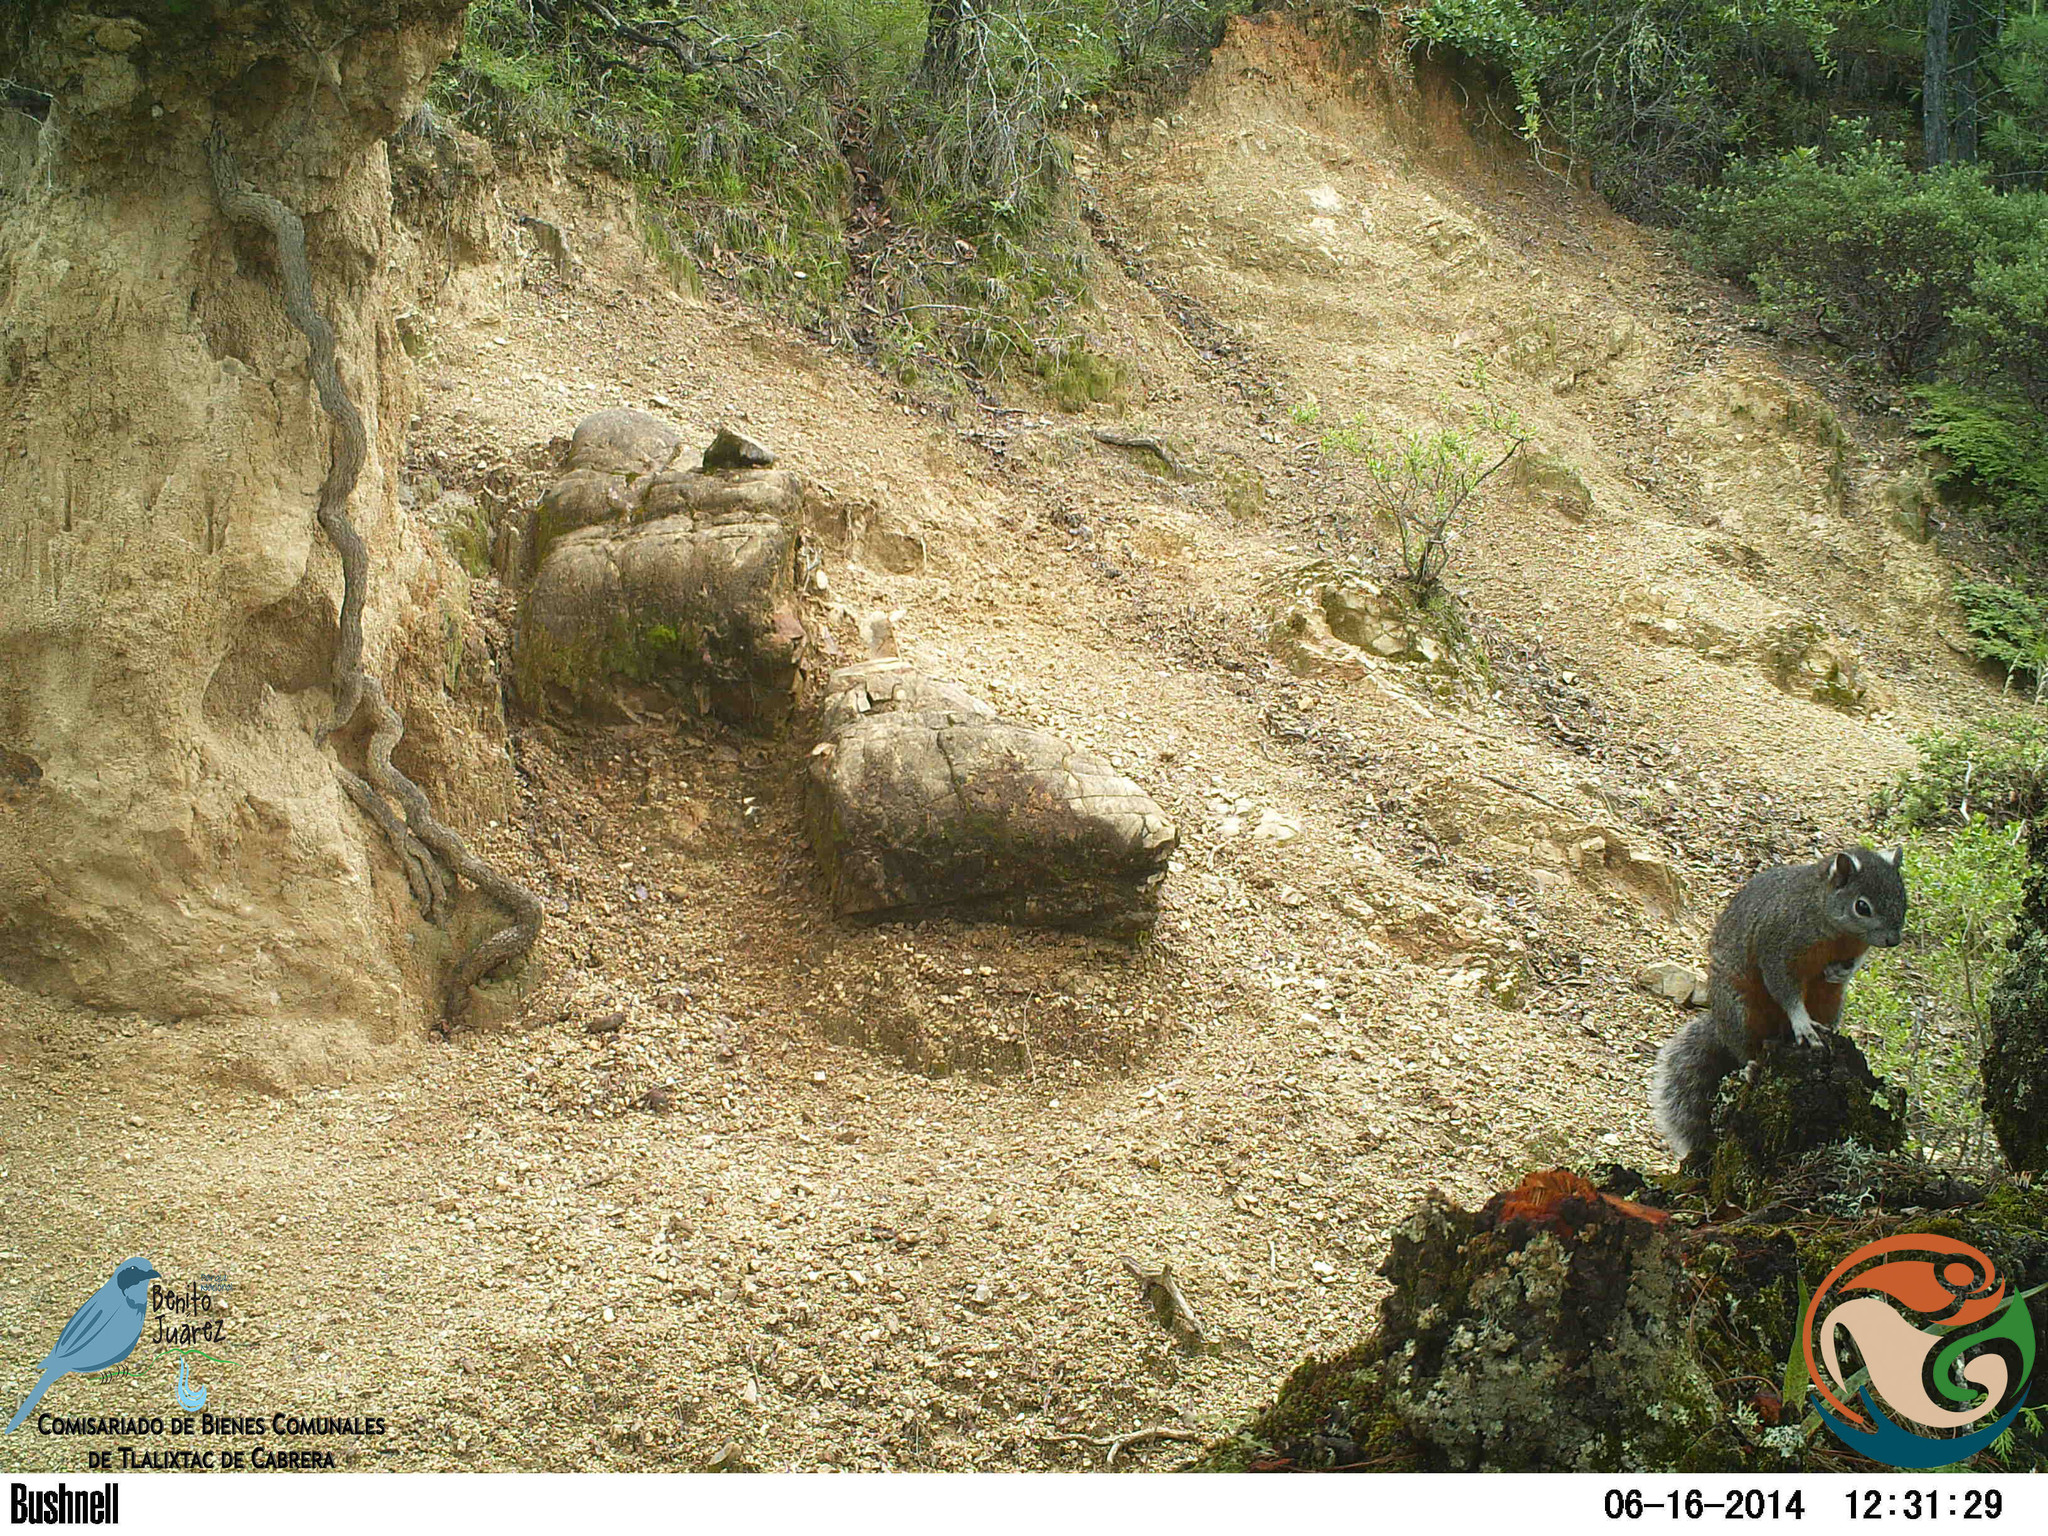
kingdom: Animalia
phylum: Chordata
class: Mammalia
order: Rodentia
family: Sciuridae
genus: Sciurus
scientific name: Sciurus aureogaster
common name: Red-bellied squirrel
